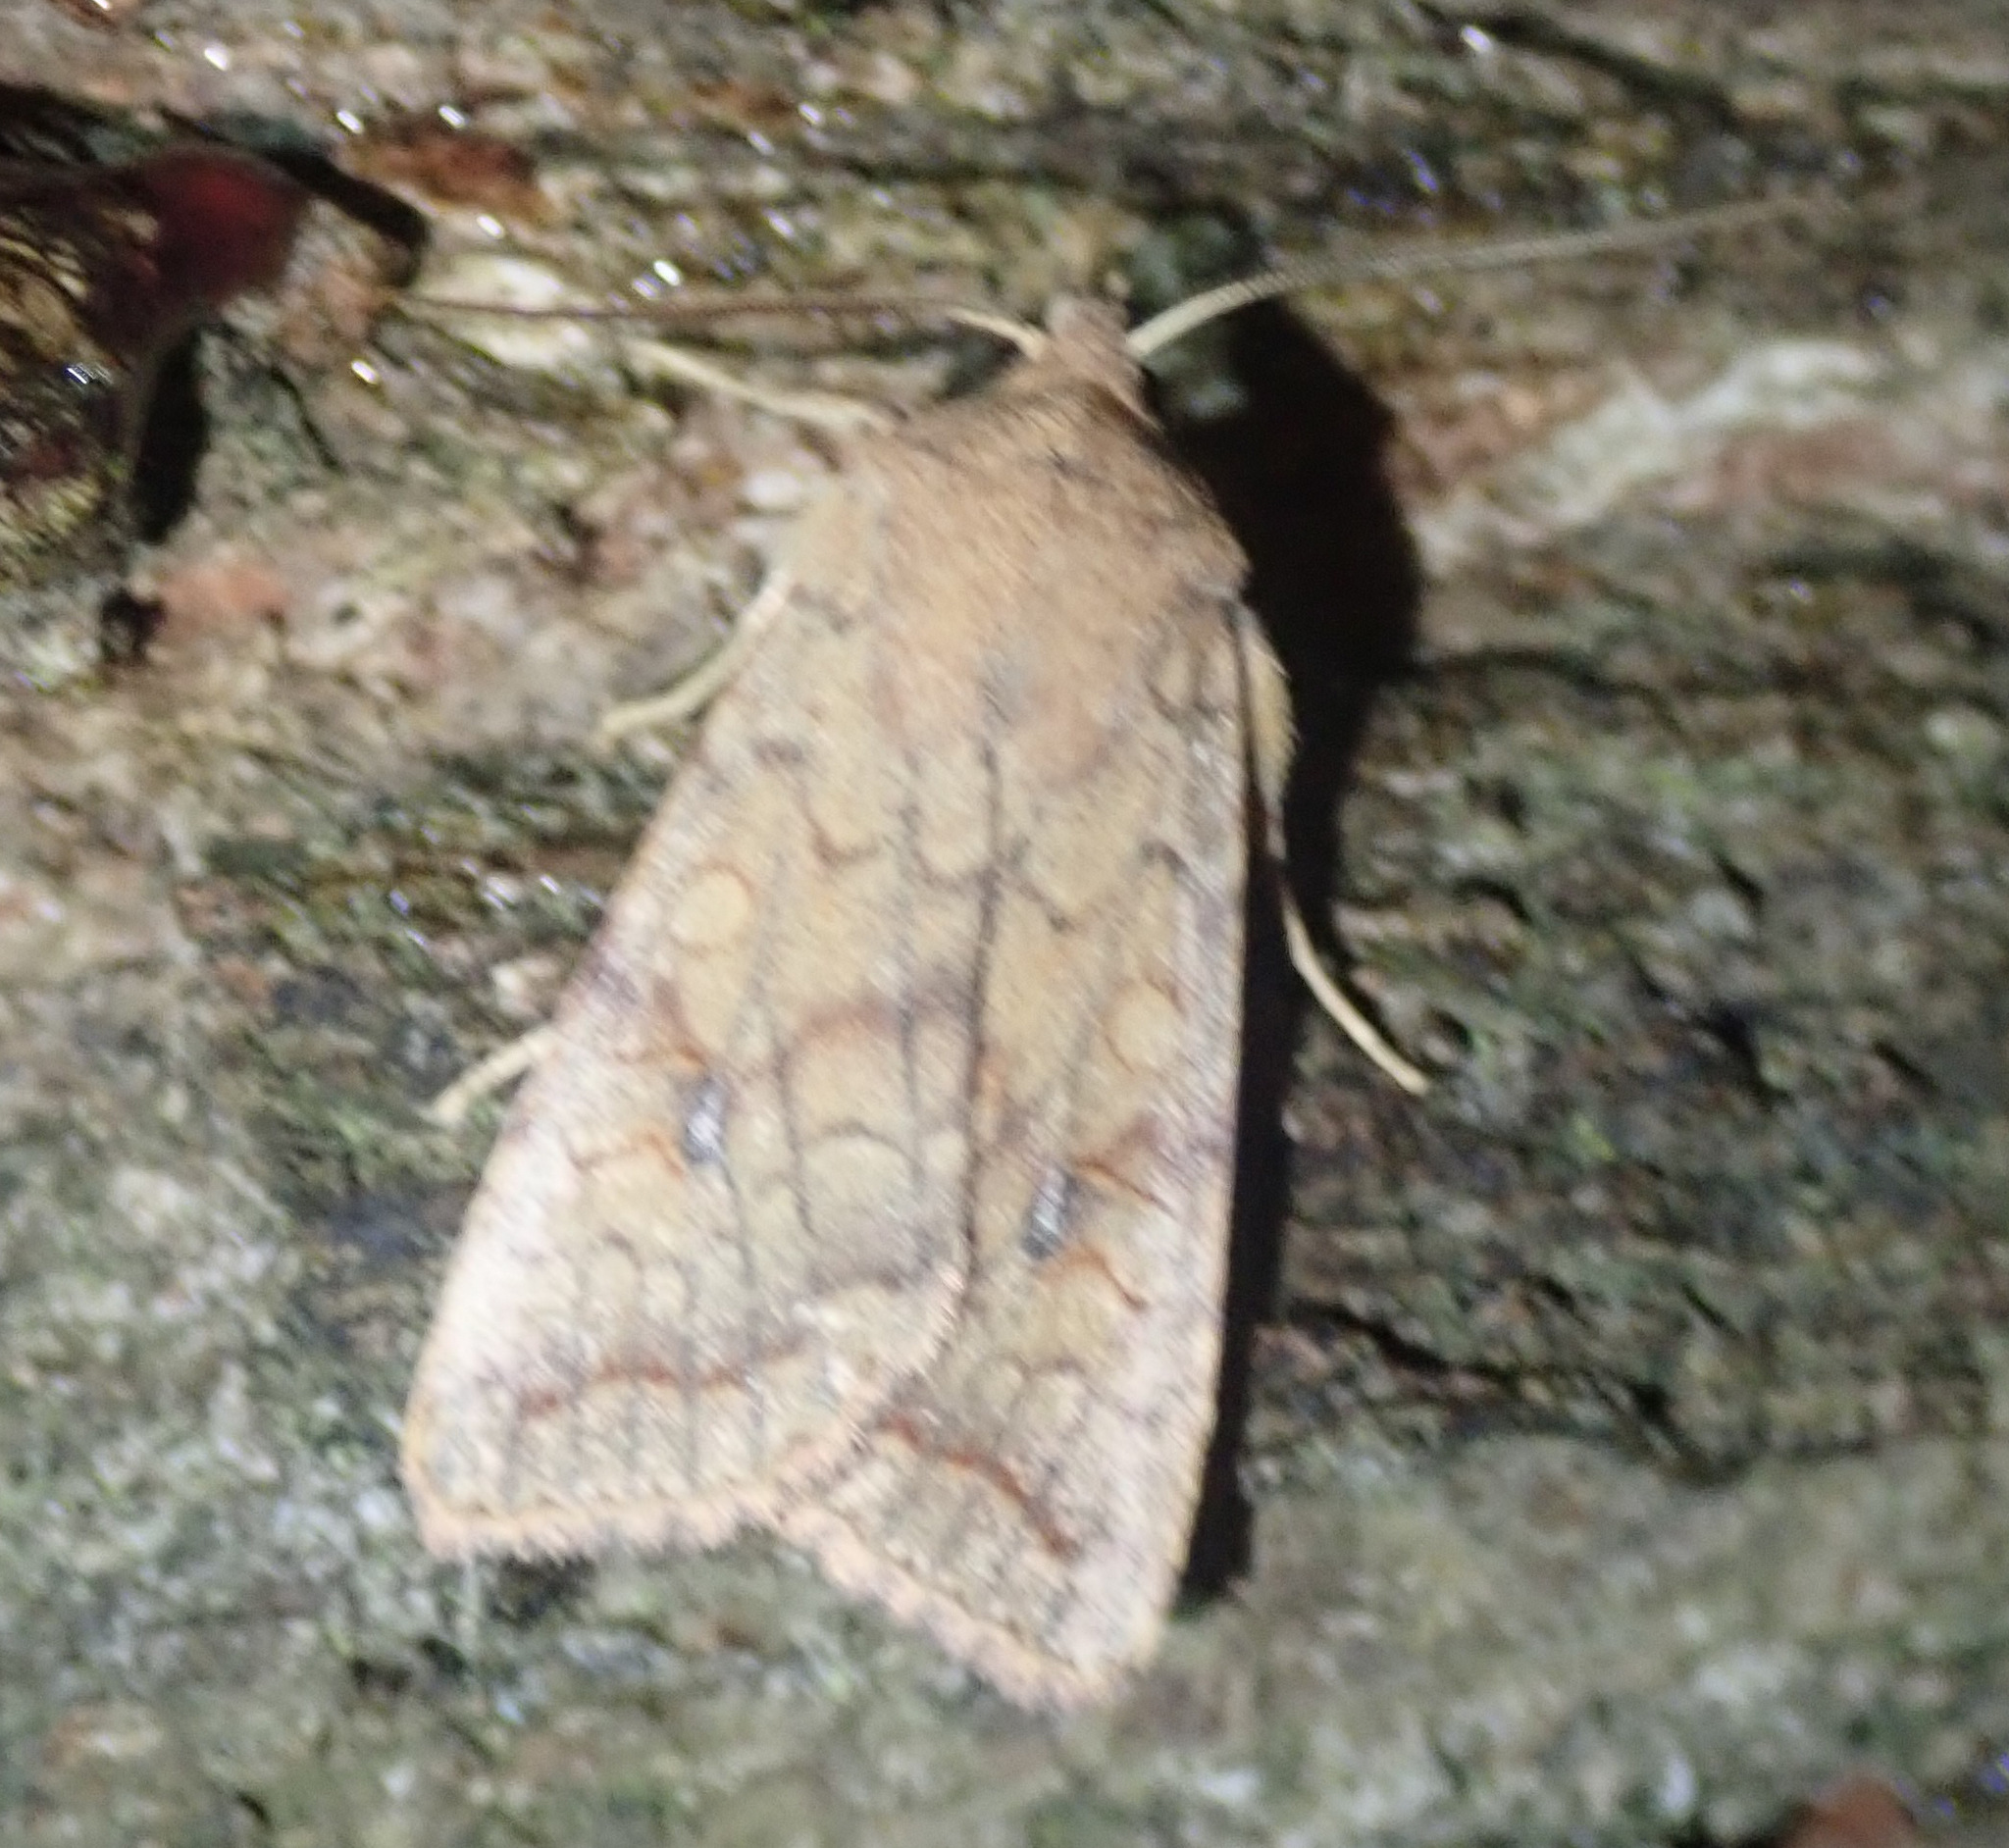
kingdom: Animalia
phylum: Arthropoda
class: Insecta
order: Lepidoptera
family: Noctuidae
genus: Sunira
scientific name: Sunira circellaris
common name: Brick
